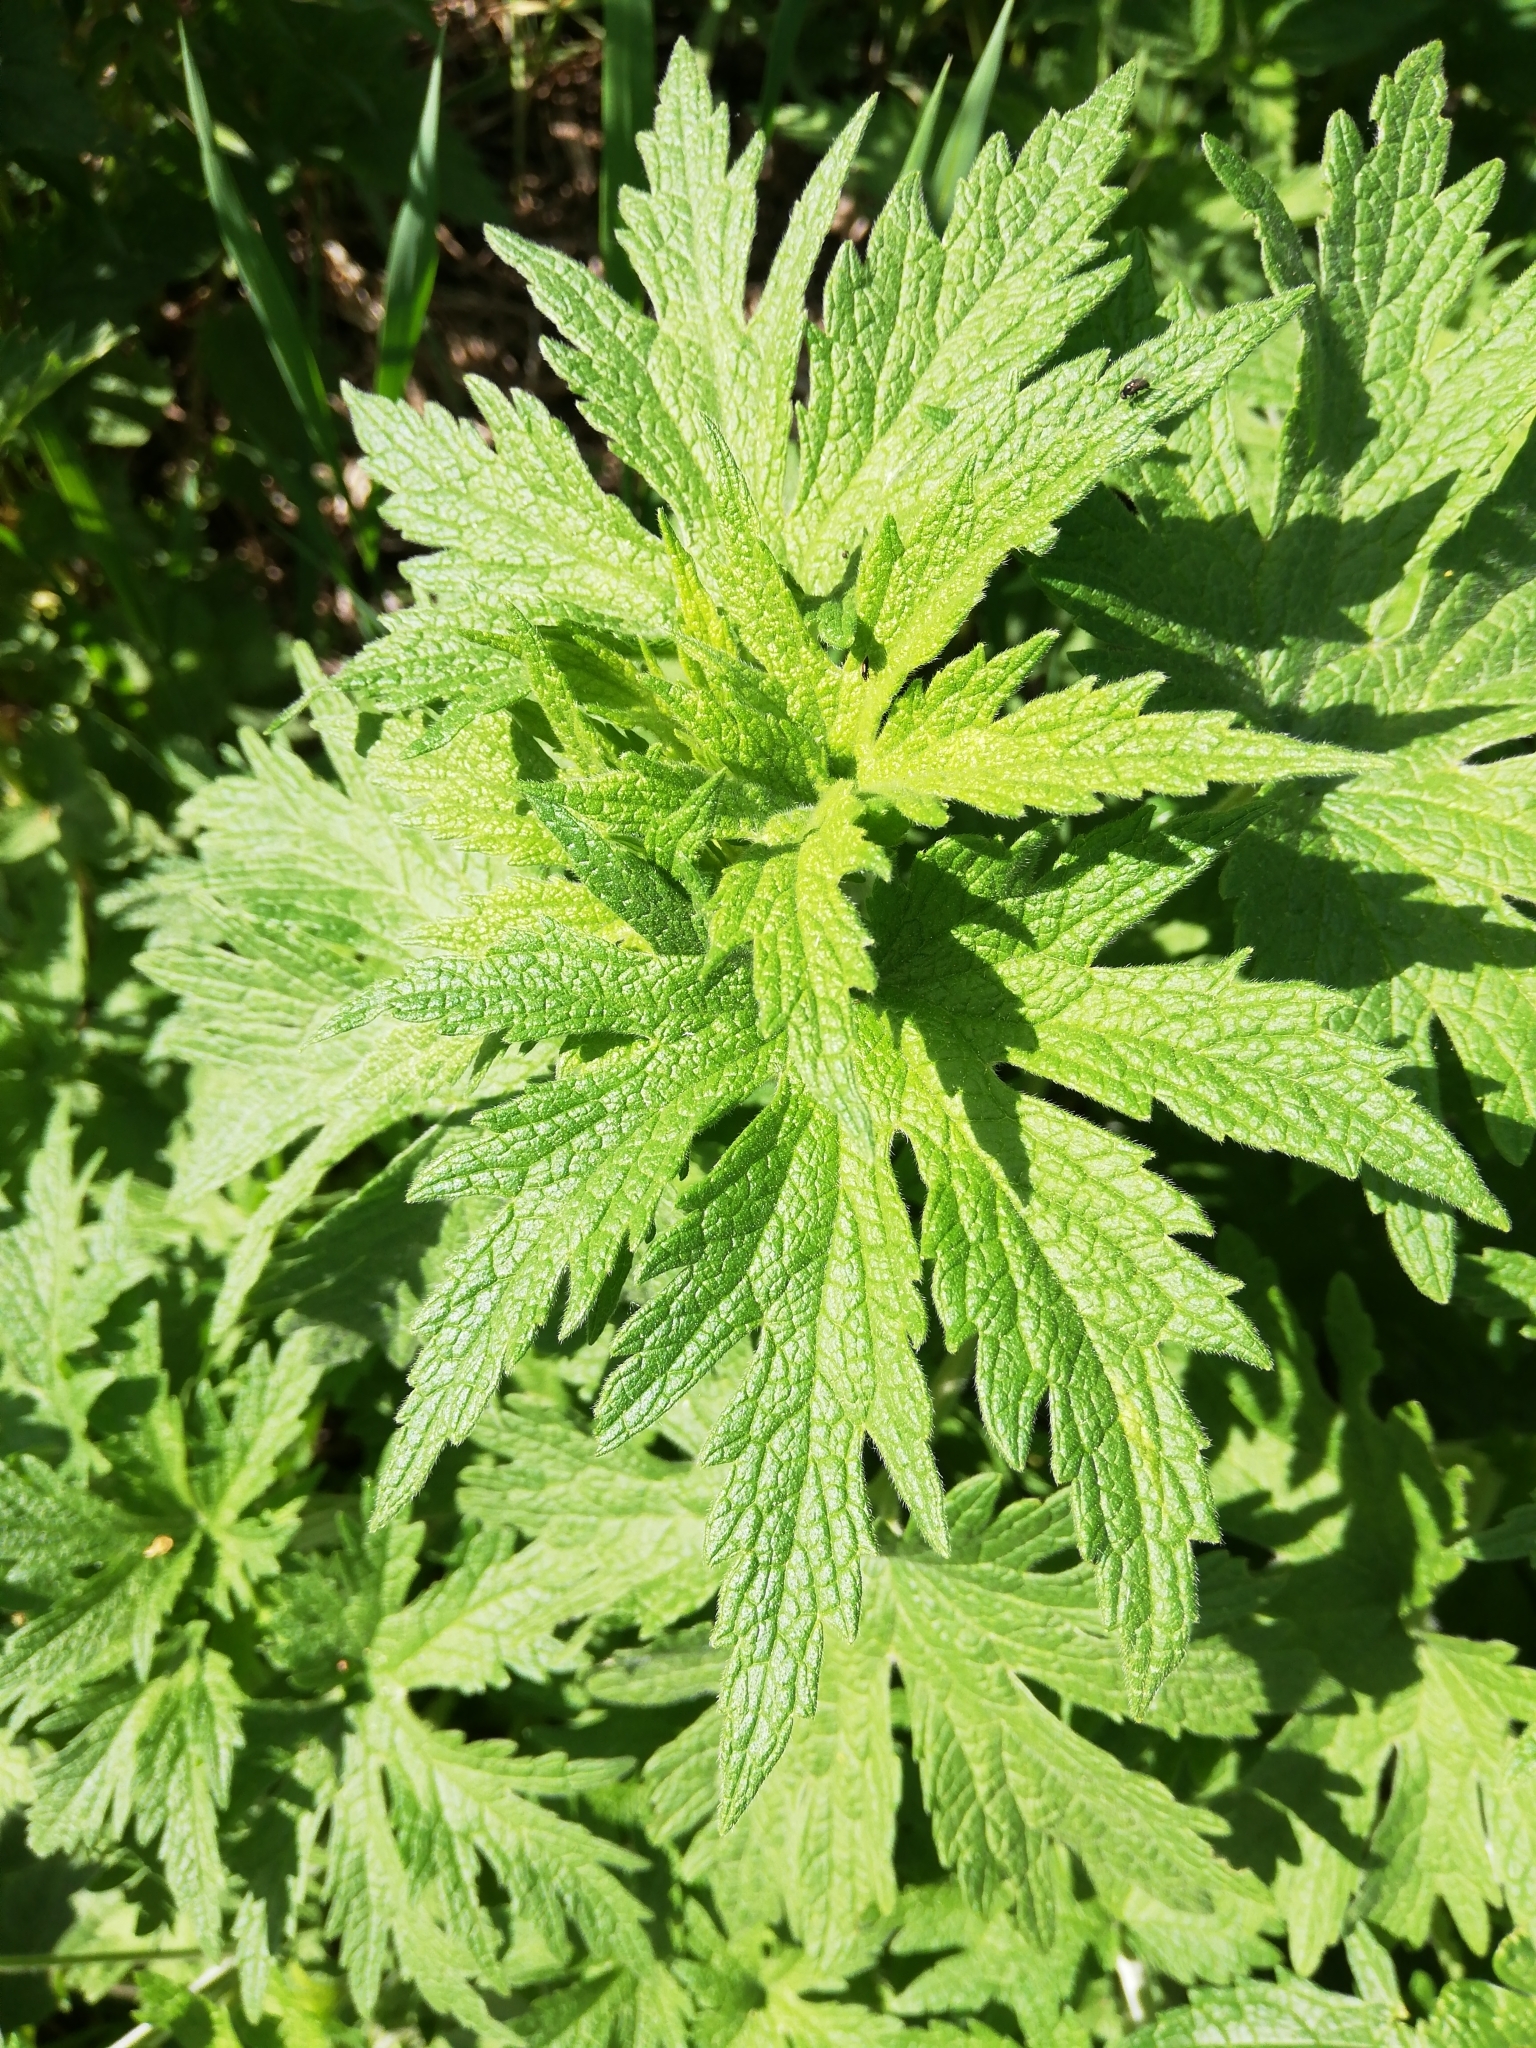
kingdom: Plantae
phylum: Tracheophyta
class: Magnoliopsida
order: Lamiales
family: Lamiaceae
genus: Leonurus
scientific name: Leonurus quinquelobatus
